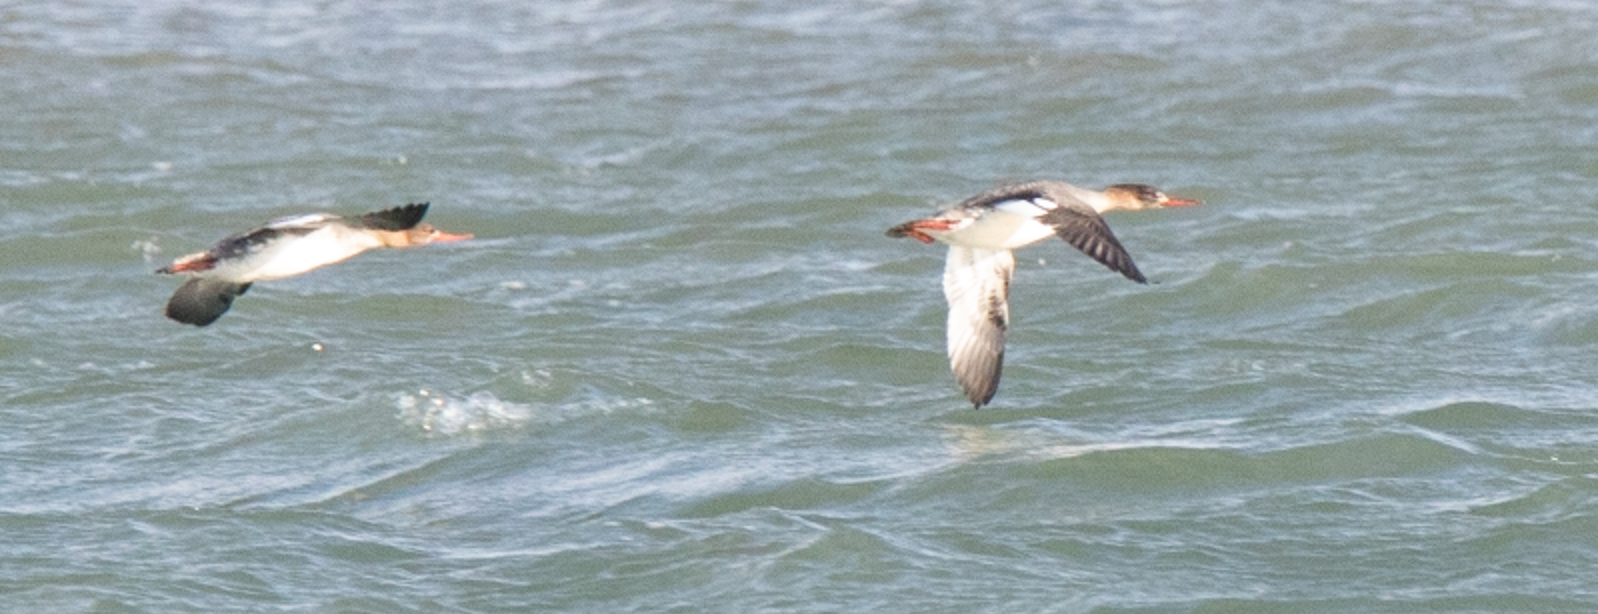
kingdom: Animalia
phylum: Chordata
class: Aves
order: Anseriformes
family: Anatidae
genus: Mergus
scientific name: Mergus serrator
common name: Red-breasted merganser
